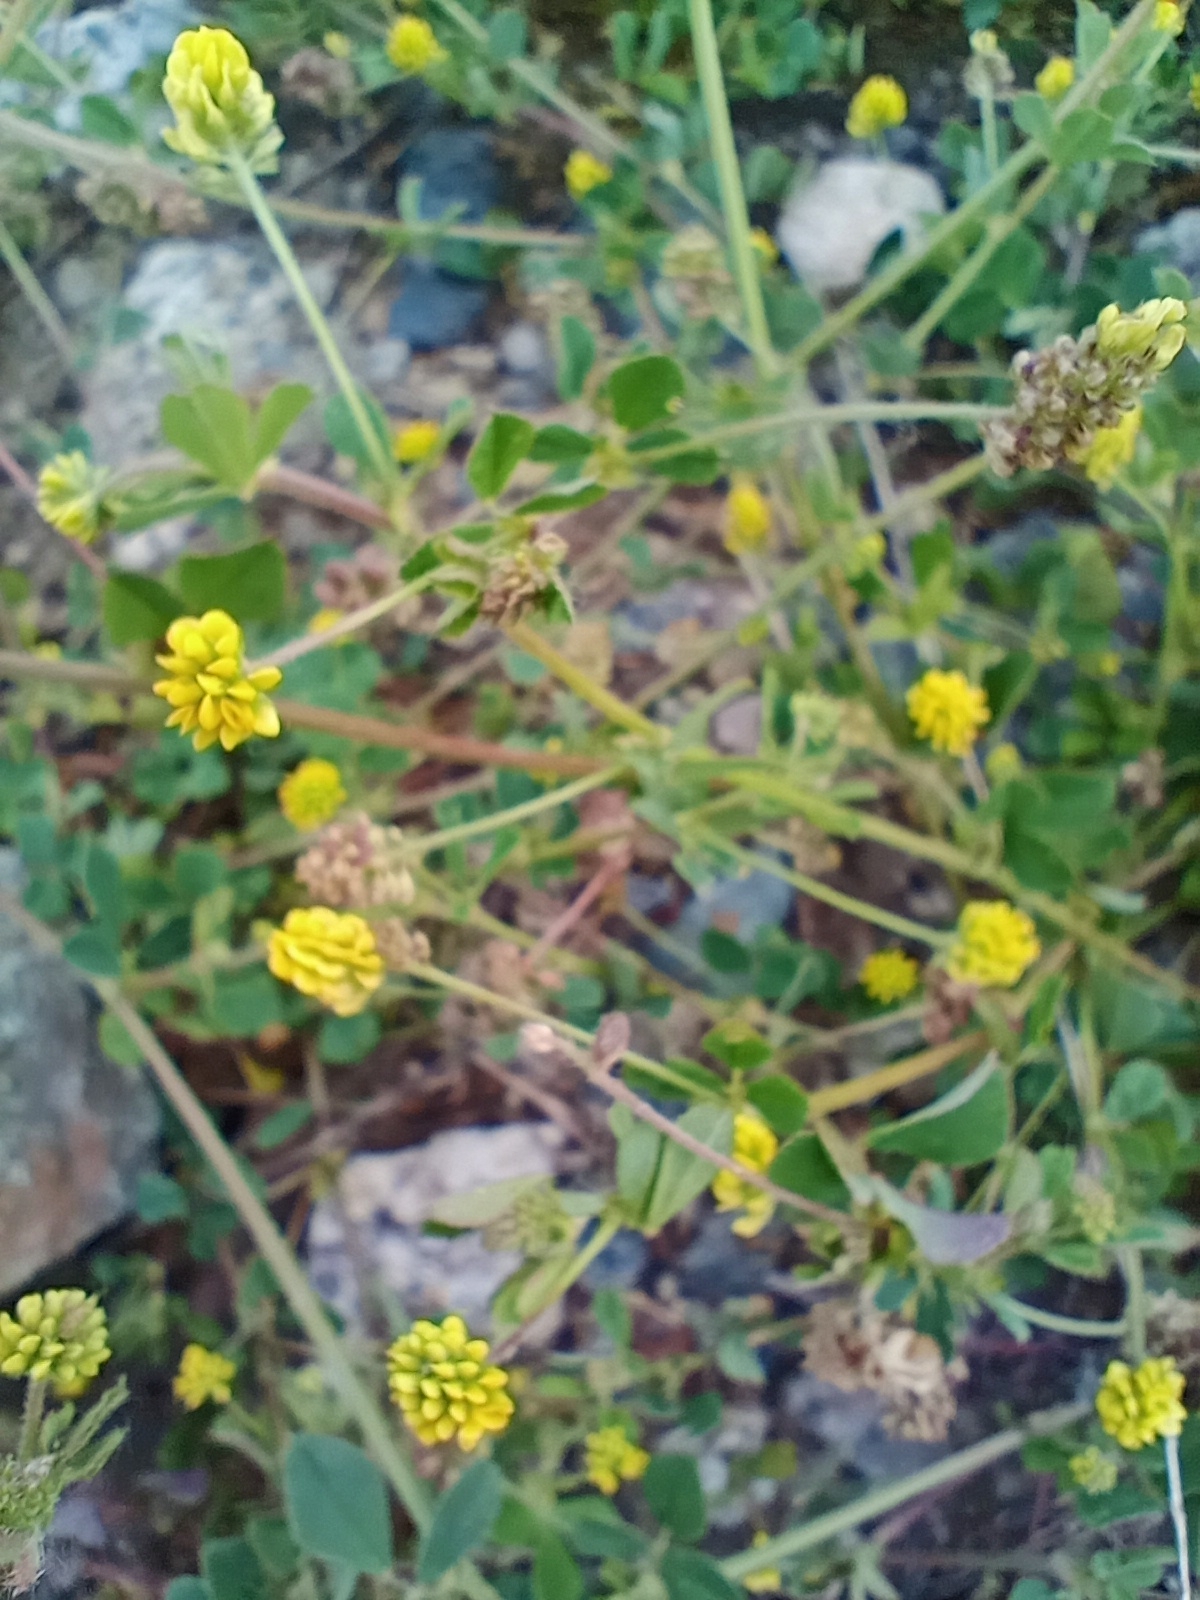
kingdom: Plantae
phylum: Tracheophyta
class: Magnoliopsida
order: Fabales
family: Fabaceae
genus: Medicago
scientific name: Medicago lupulina
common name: Black medick
